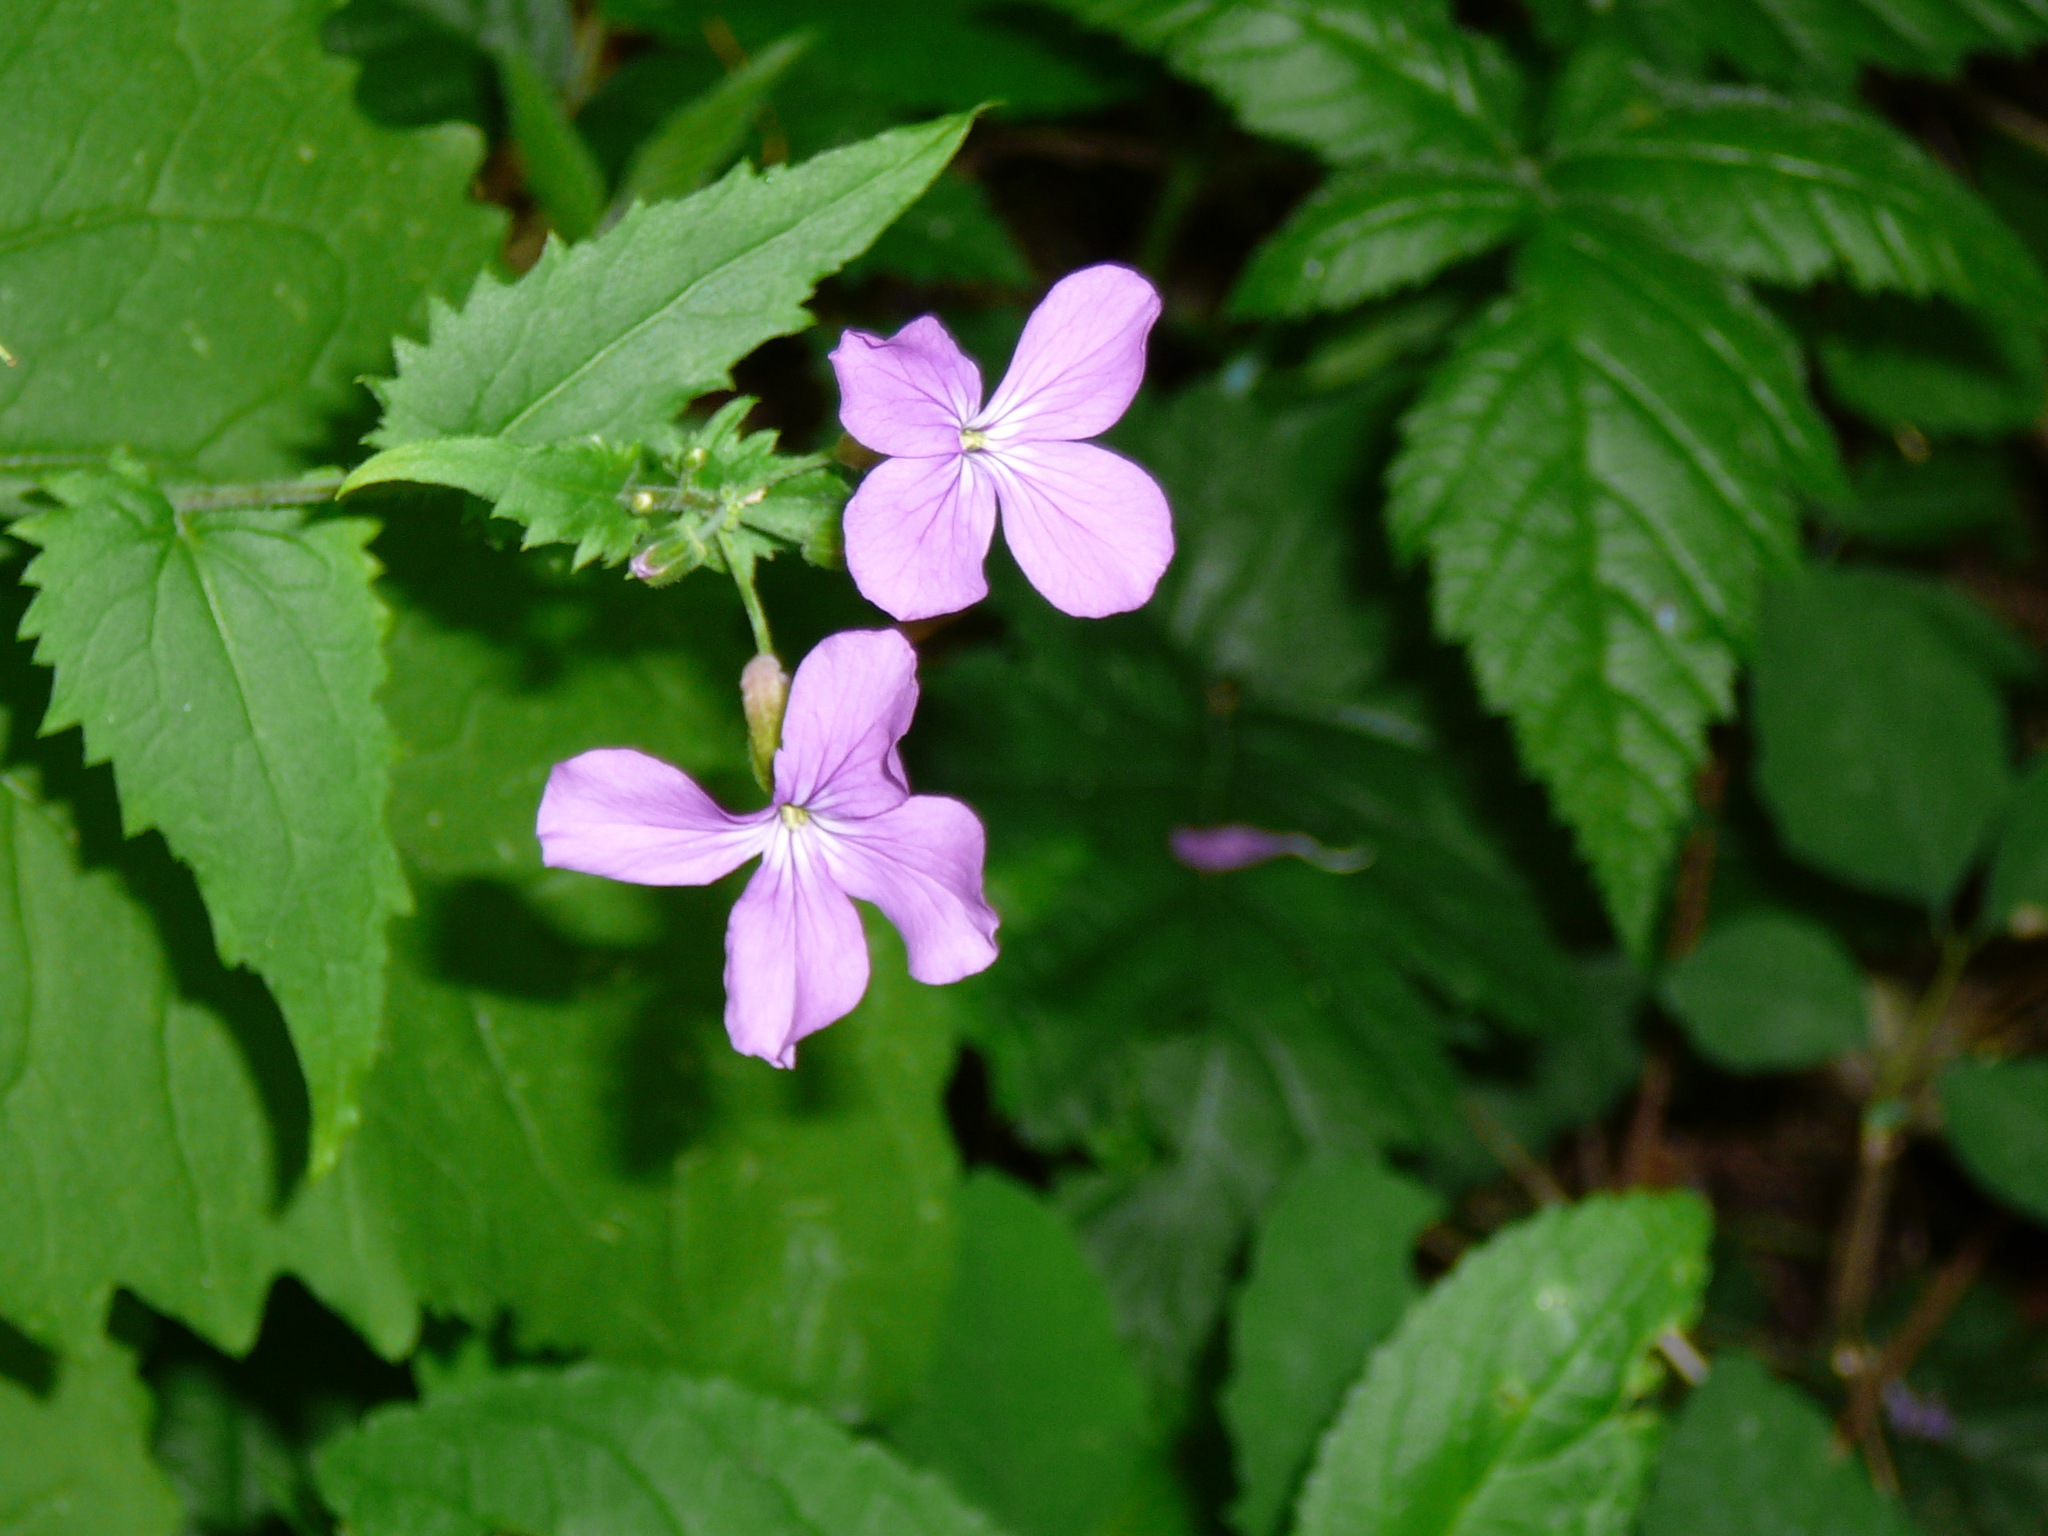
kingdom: Plantae
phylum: Tracheophyta
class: Magnoliopsida
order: Brassicales
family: Brassicaceae
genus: Lunaria
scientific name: Lunaria annua
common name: Honesty
